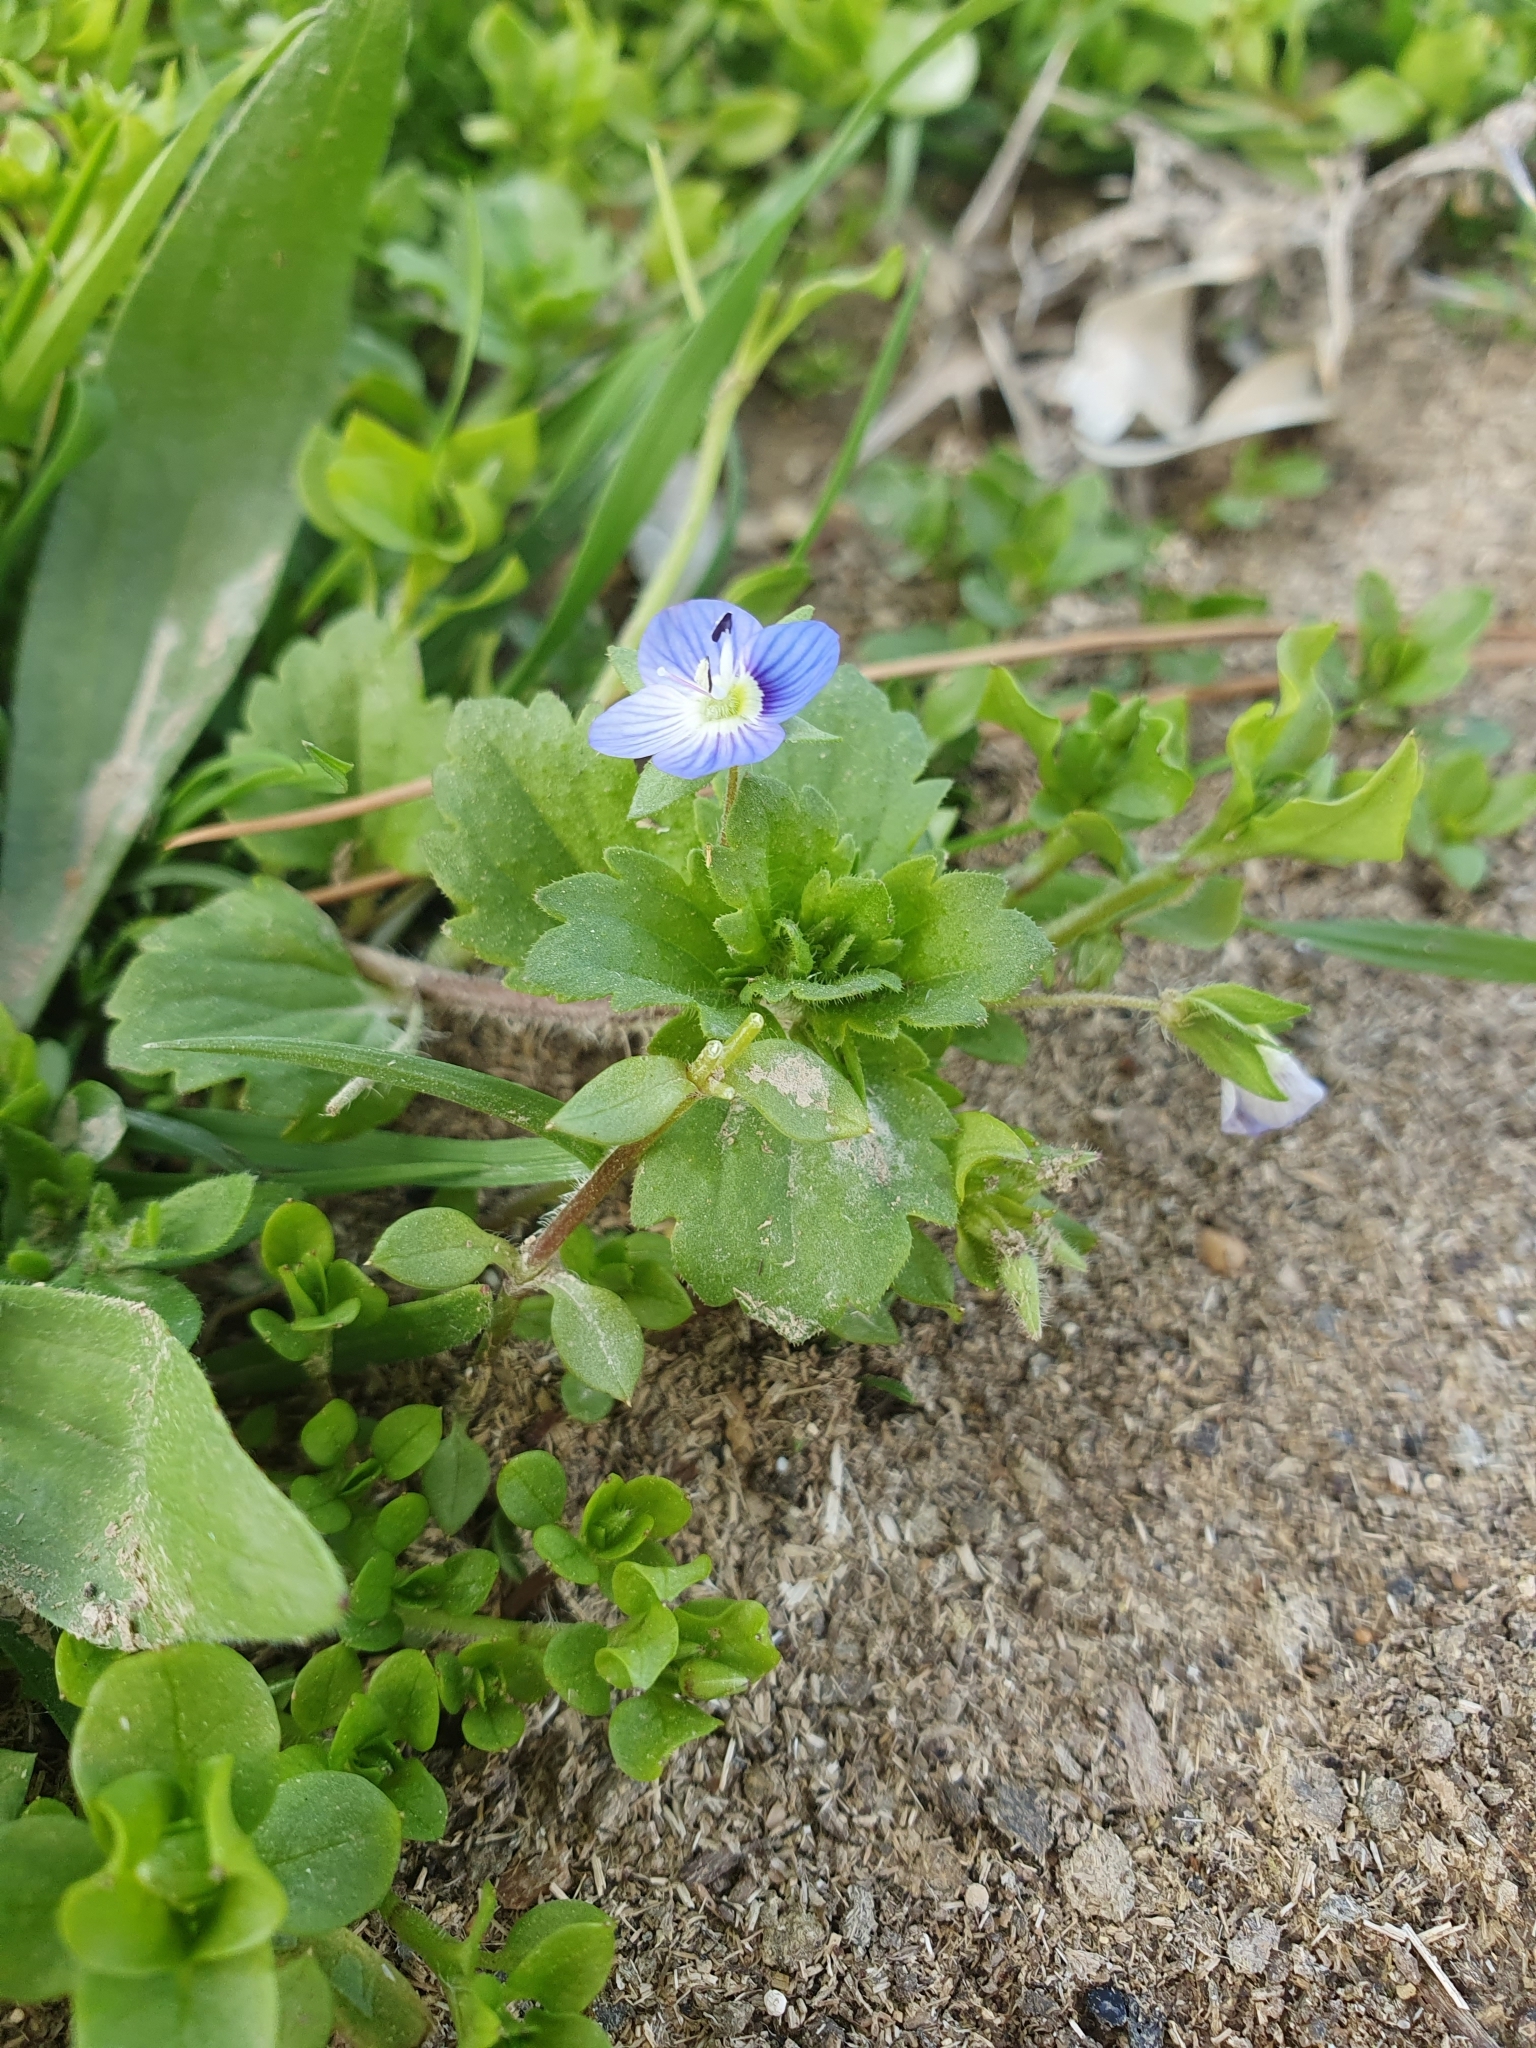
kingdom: Plantae
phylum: Tracheophyta
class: Magnoliopsida
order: Lamiales
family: Plantaginaceae
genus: Veronica
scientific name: Veronica persica
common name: Common field-speedwell
